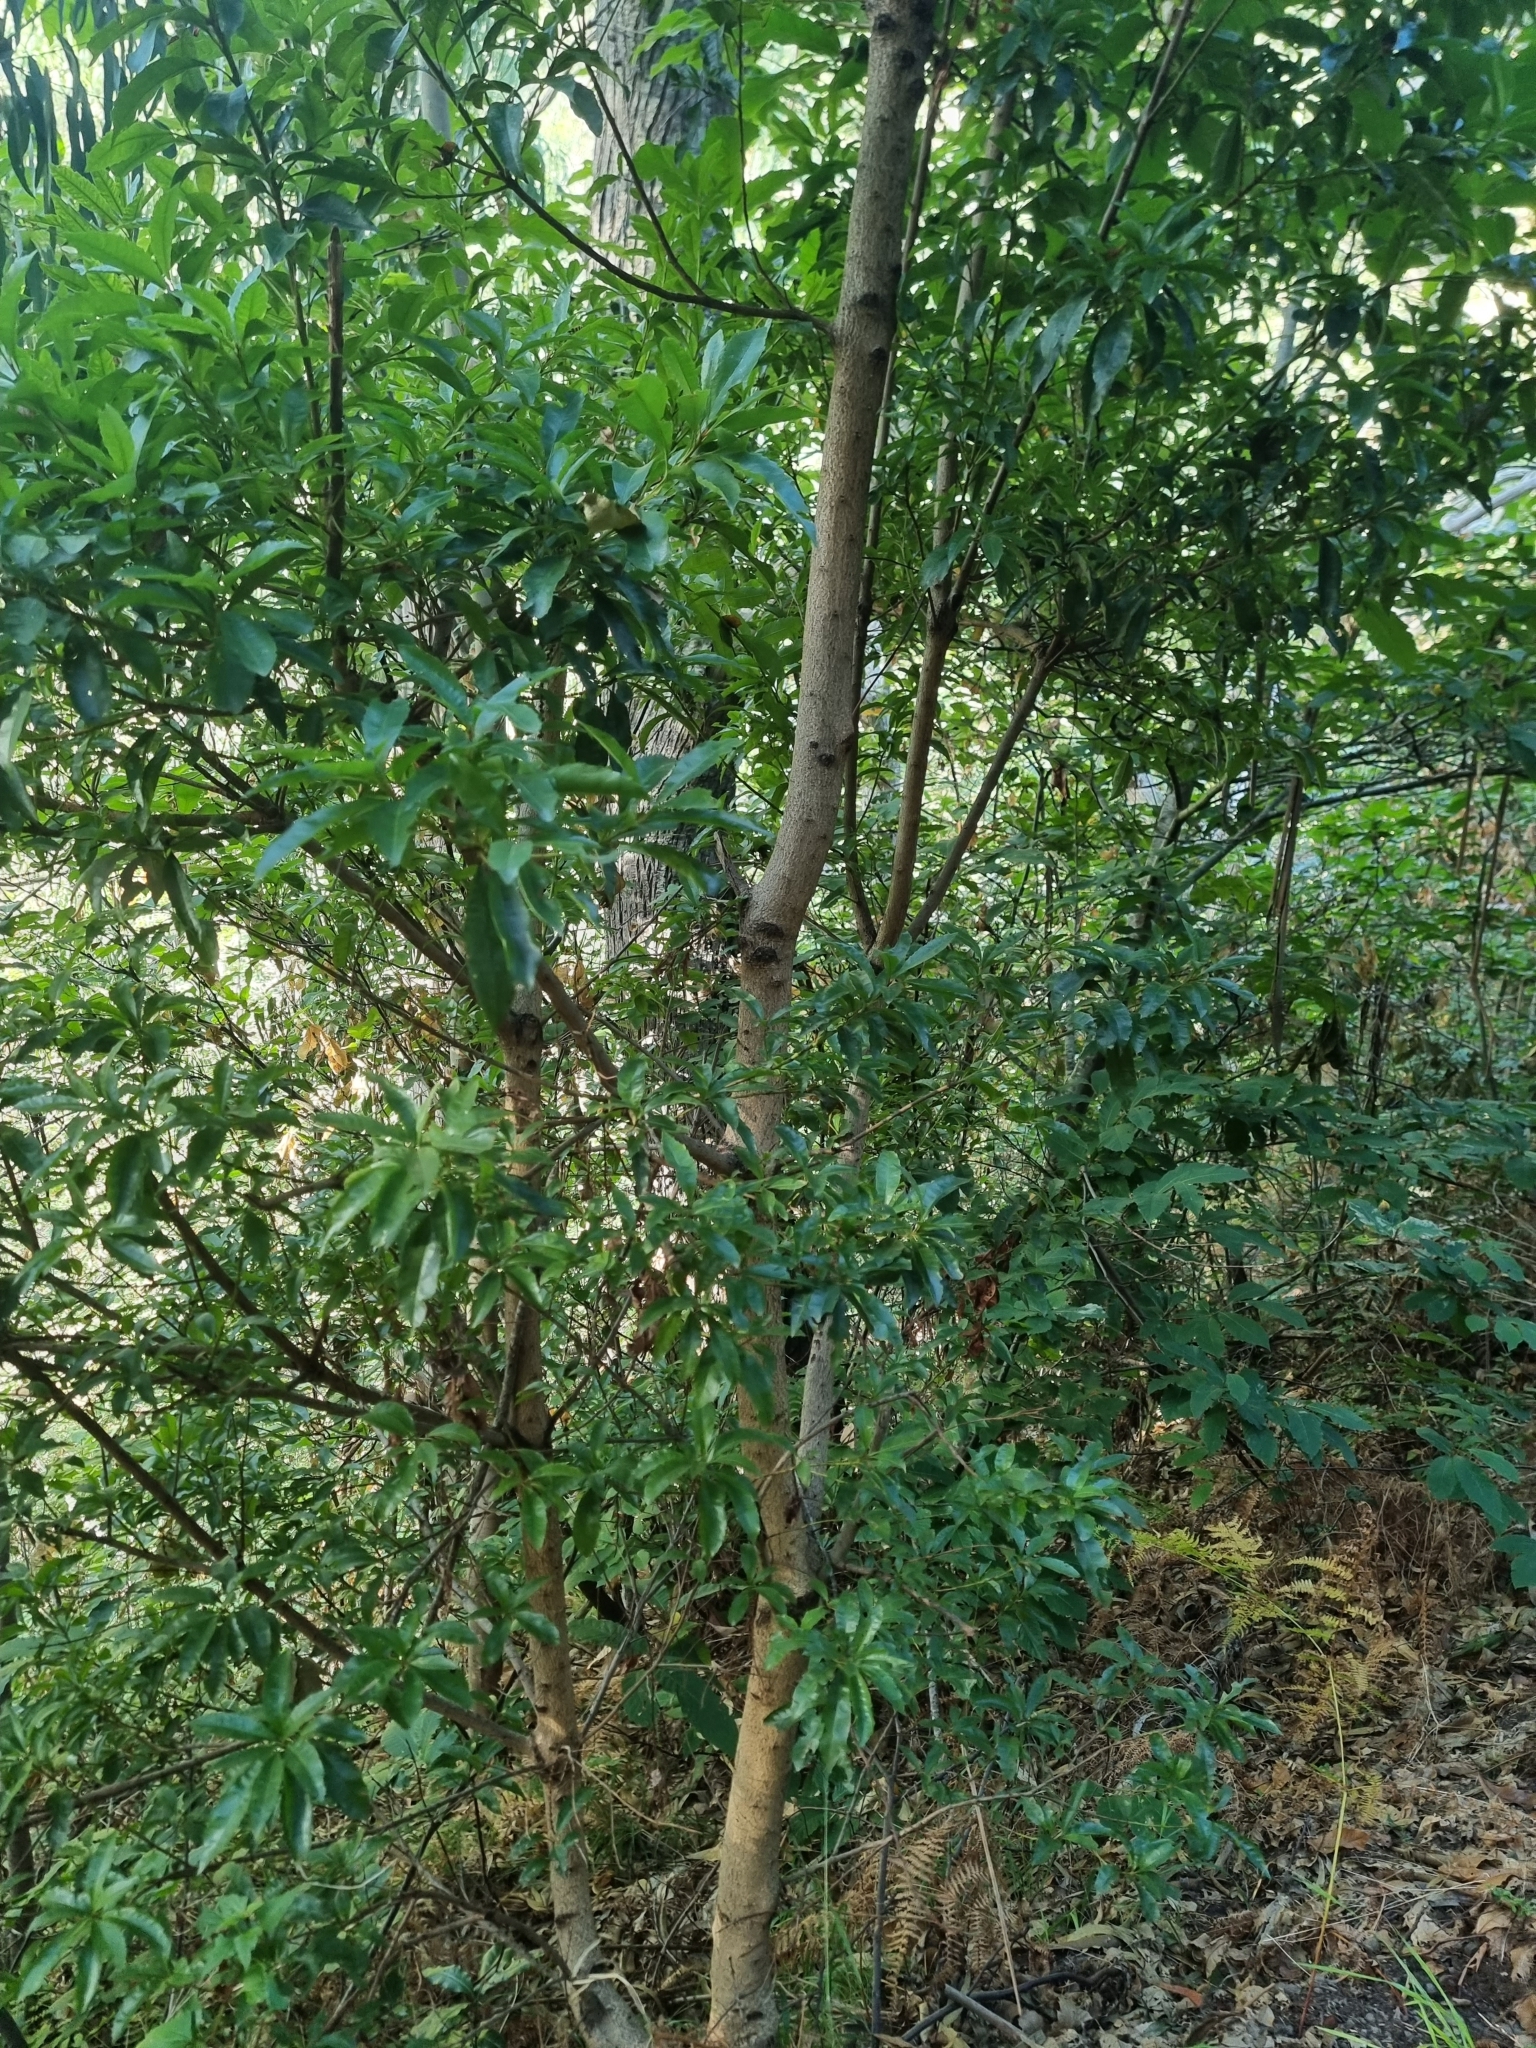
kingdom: Plantae
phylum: Tracheophyta
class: Magnoliopsida
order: Fagales
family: Myricaceae
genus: Morella
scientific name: Morella faya
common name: Firetree
